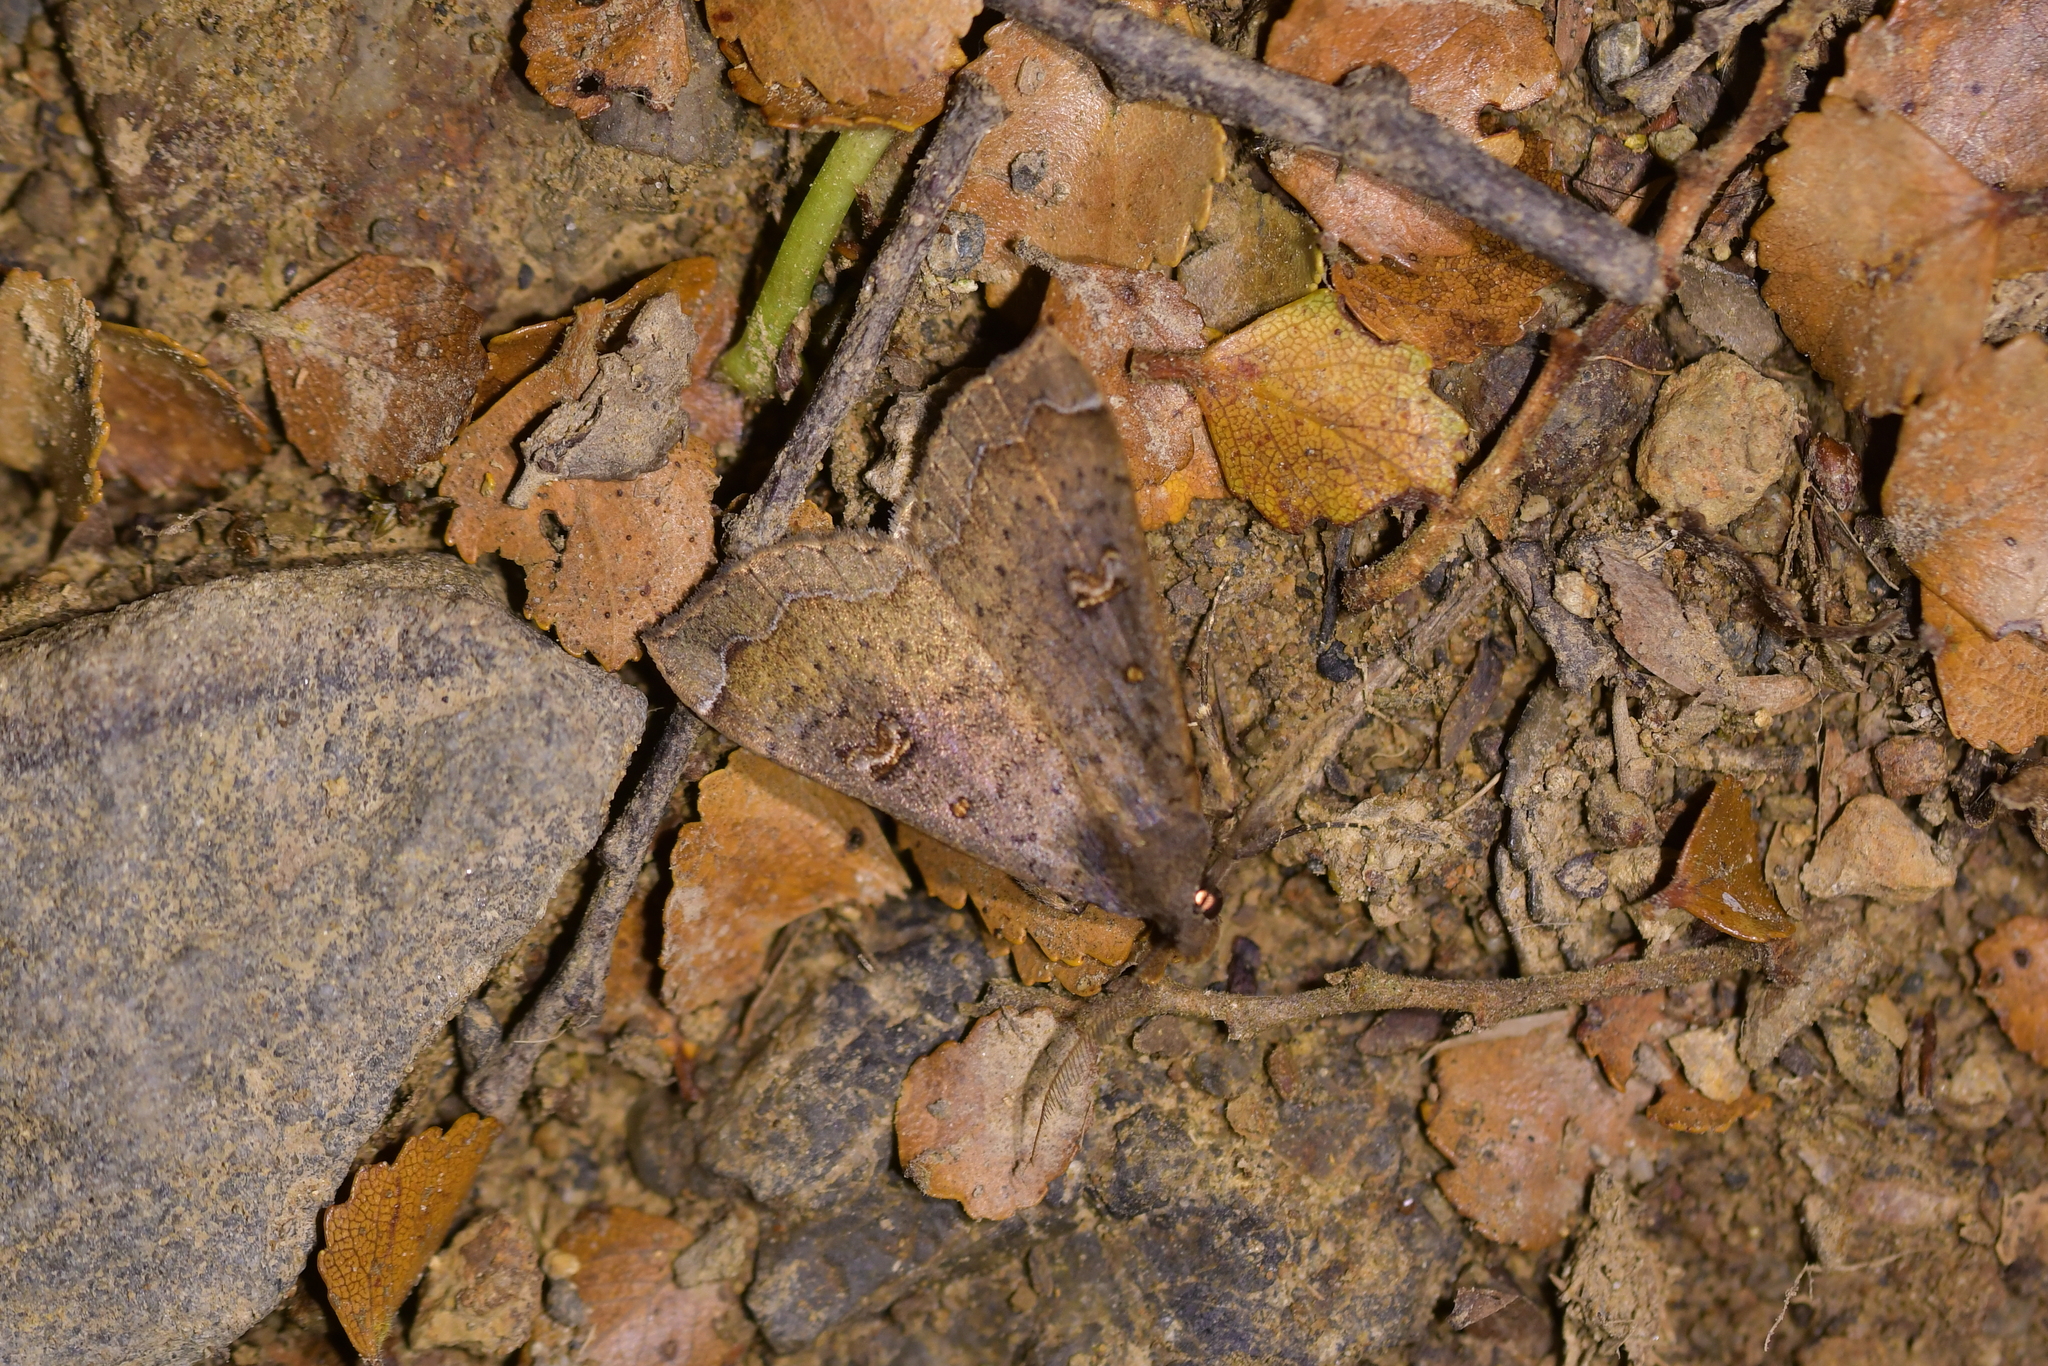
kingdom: Animalia
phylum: Arthropoda
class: Insecta
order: Lepidoptera
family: Erebidae
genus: Rhapsa
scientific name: Rhapsa scotosialis
